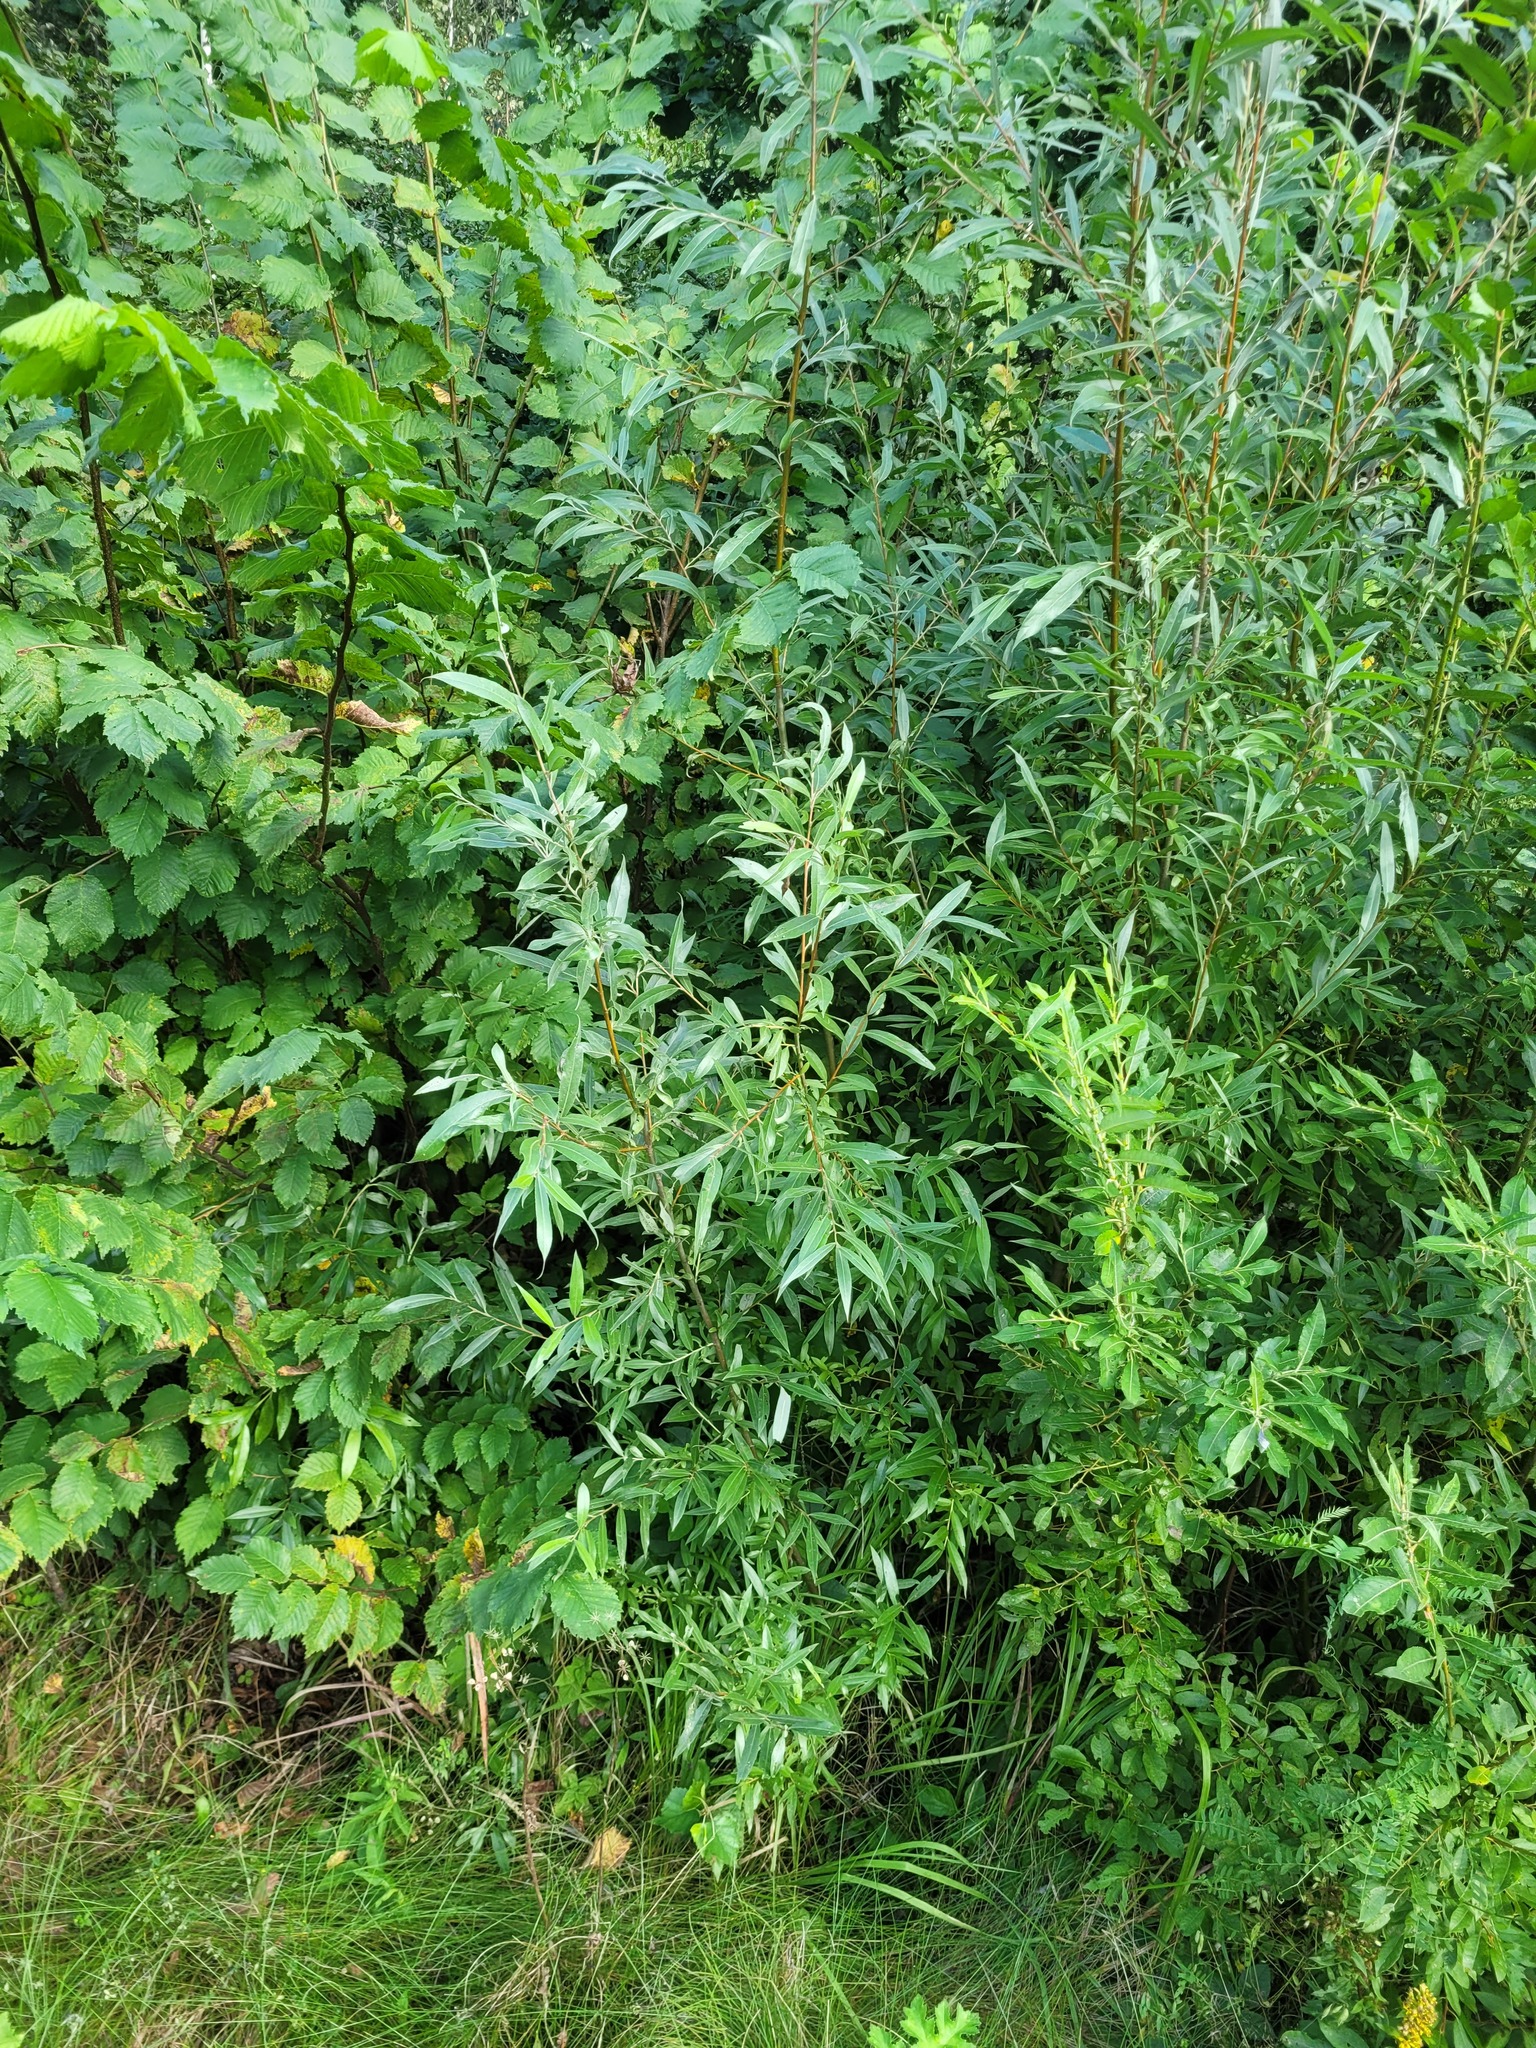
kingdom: Plantae
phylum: Tracheophyta
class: Magnoliopsida
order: Malpighiales
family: Salicaceae
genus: Salix
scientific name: Salix alba
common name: White willow
